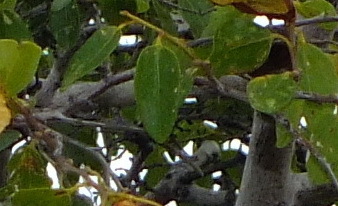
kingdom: Plantae
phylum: Tracheophyta
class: Magnoliopsida
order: Rosales
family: Rhamnaceae
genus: Paliurus
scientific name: Paliurus spina-christi
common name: Jeruselem thorn
